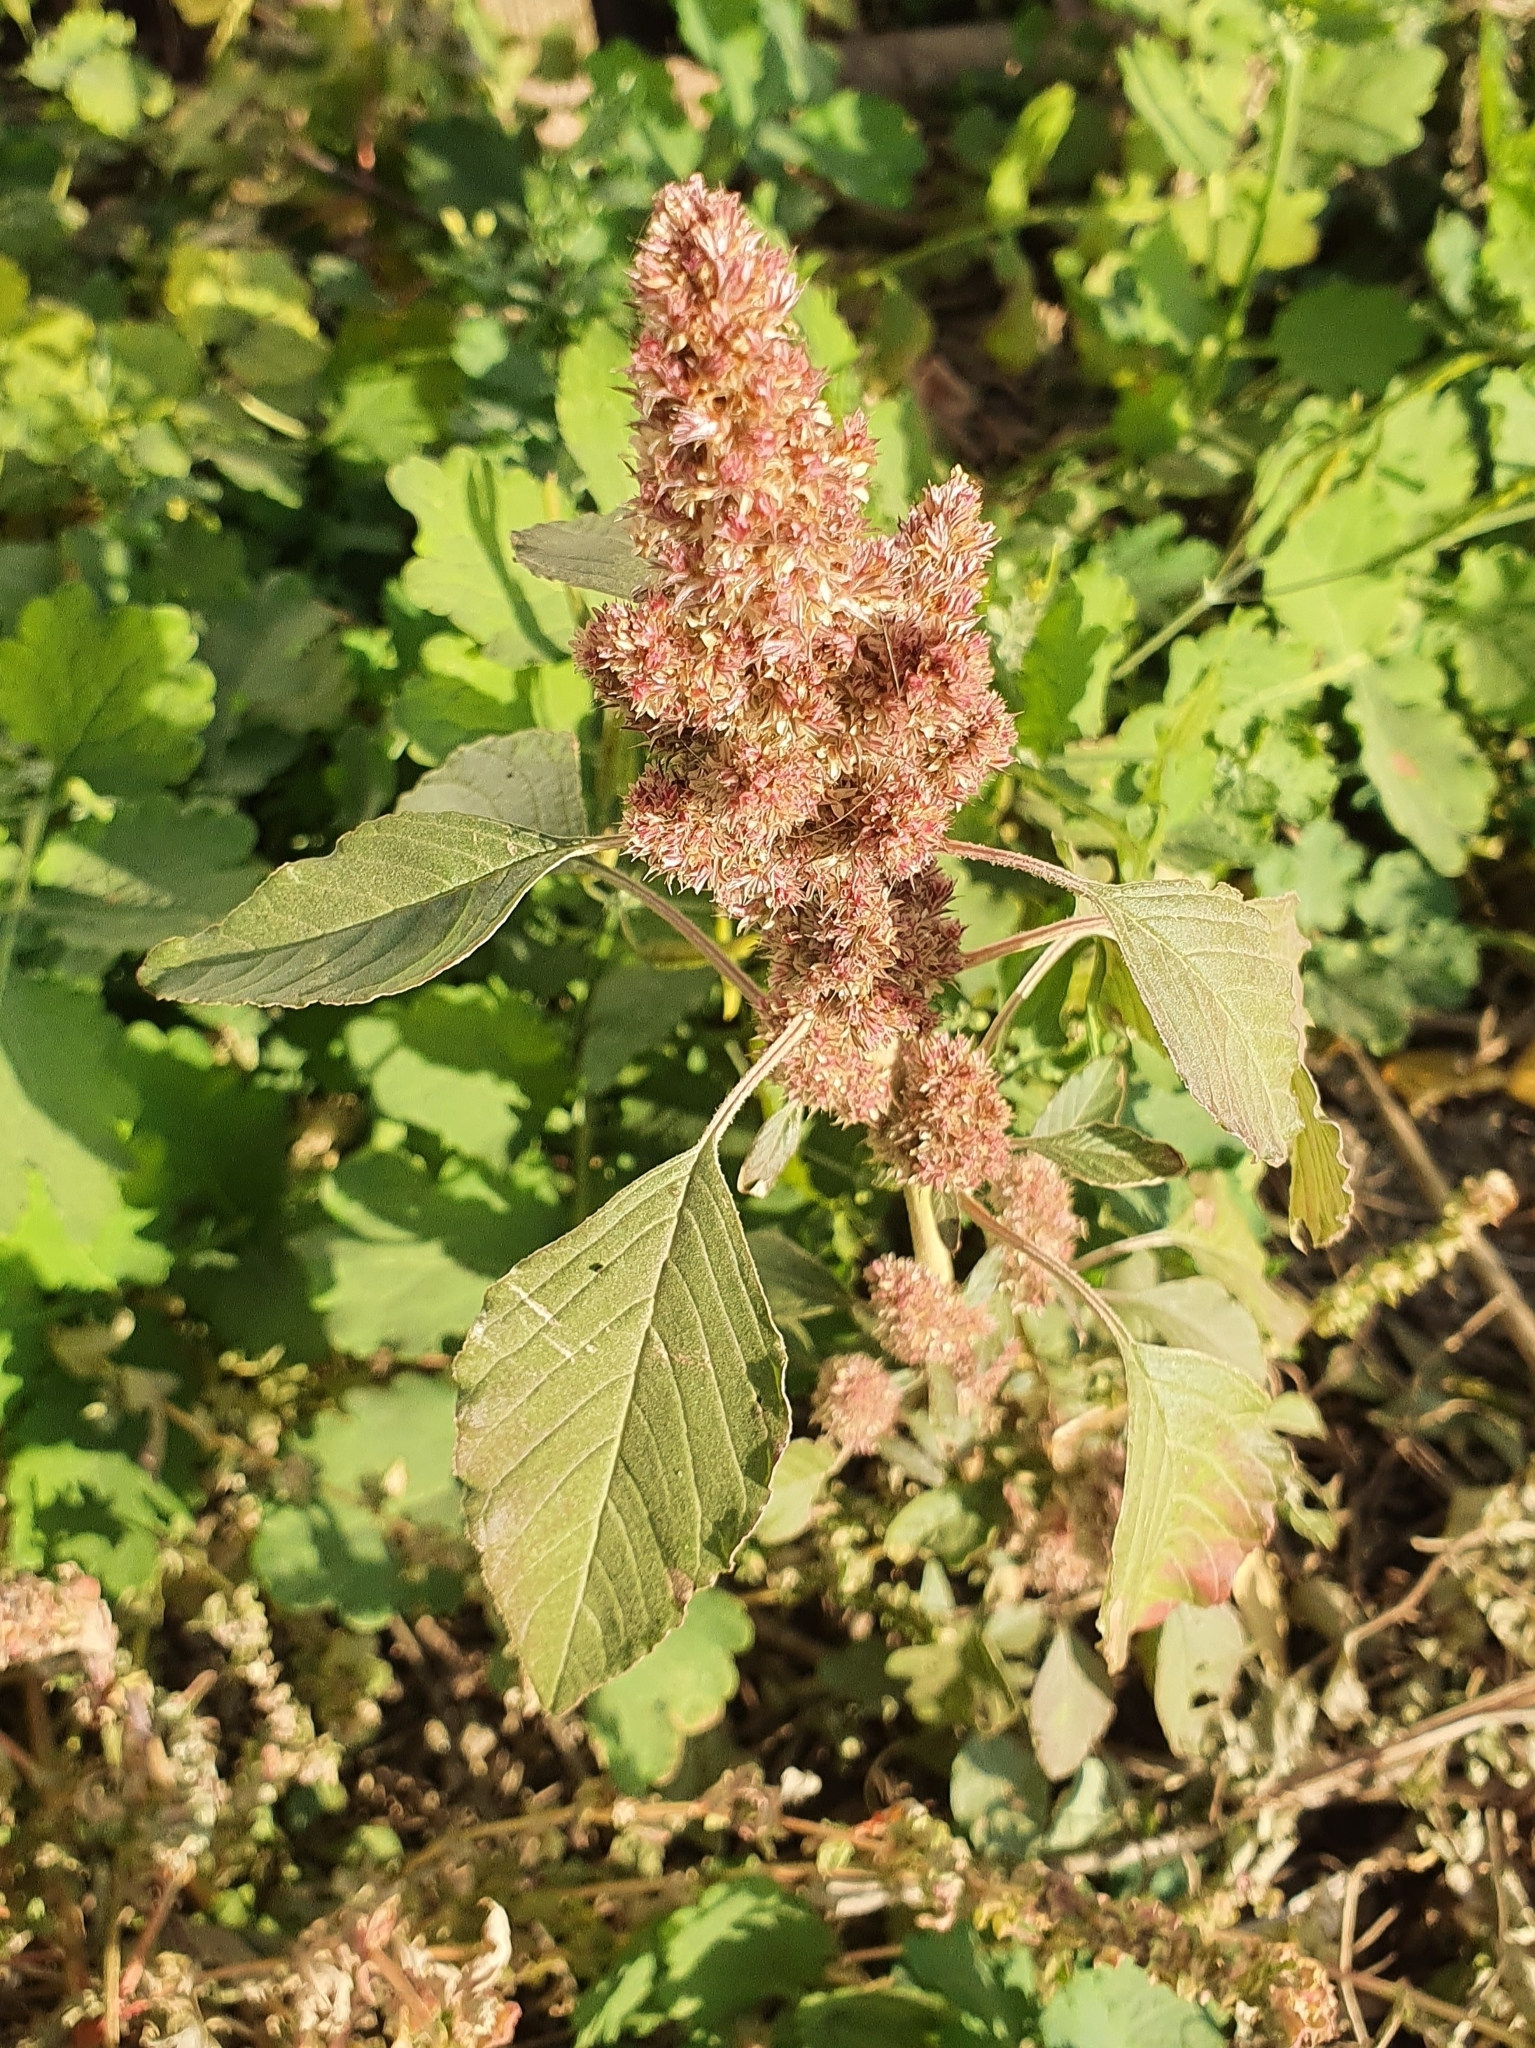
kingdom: Plantae
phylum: Tracheophyta
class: Magnoliopsida
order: Caryophyllales
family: Amaranthaceae
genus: Amaranthus
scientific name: Amaranthus retroflexus
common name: Redroot amaranth
